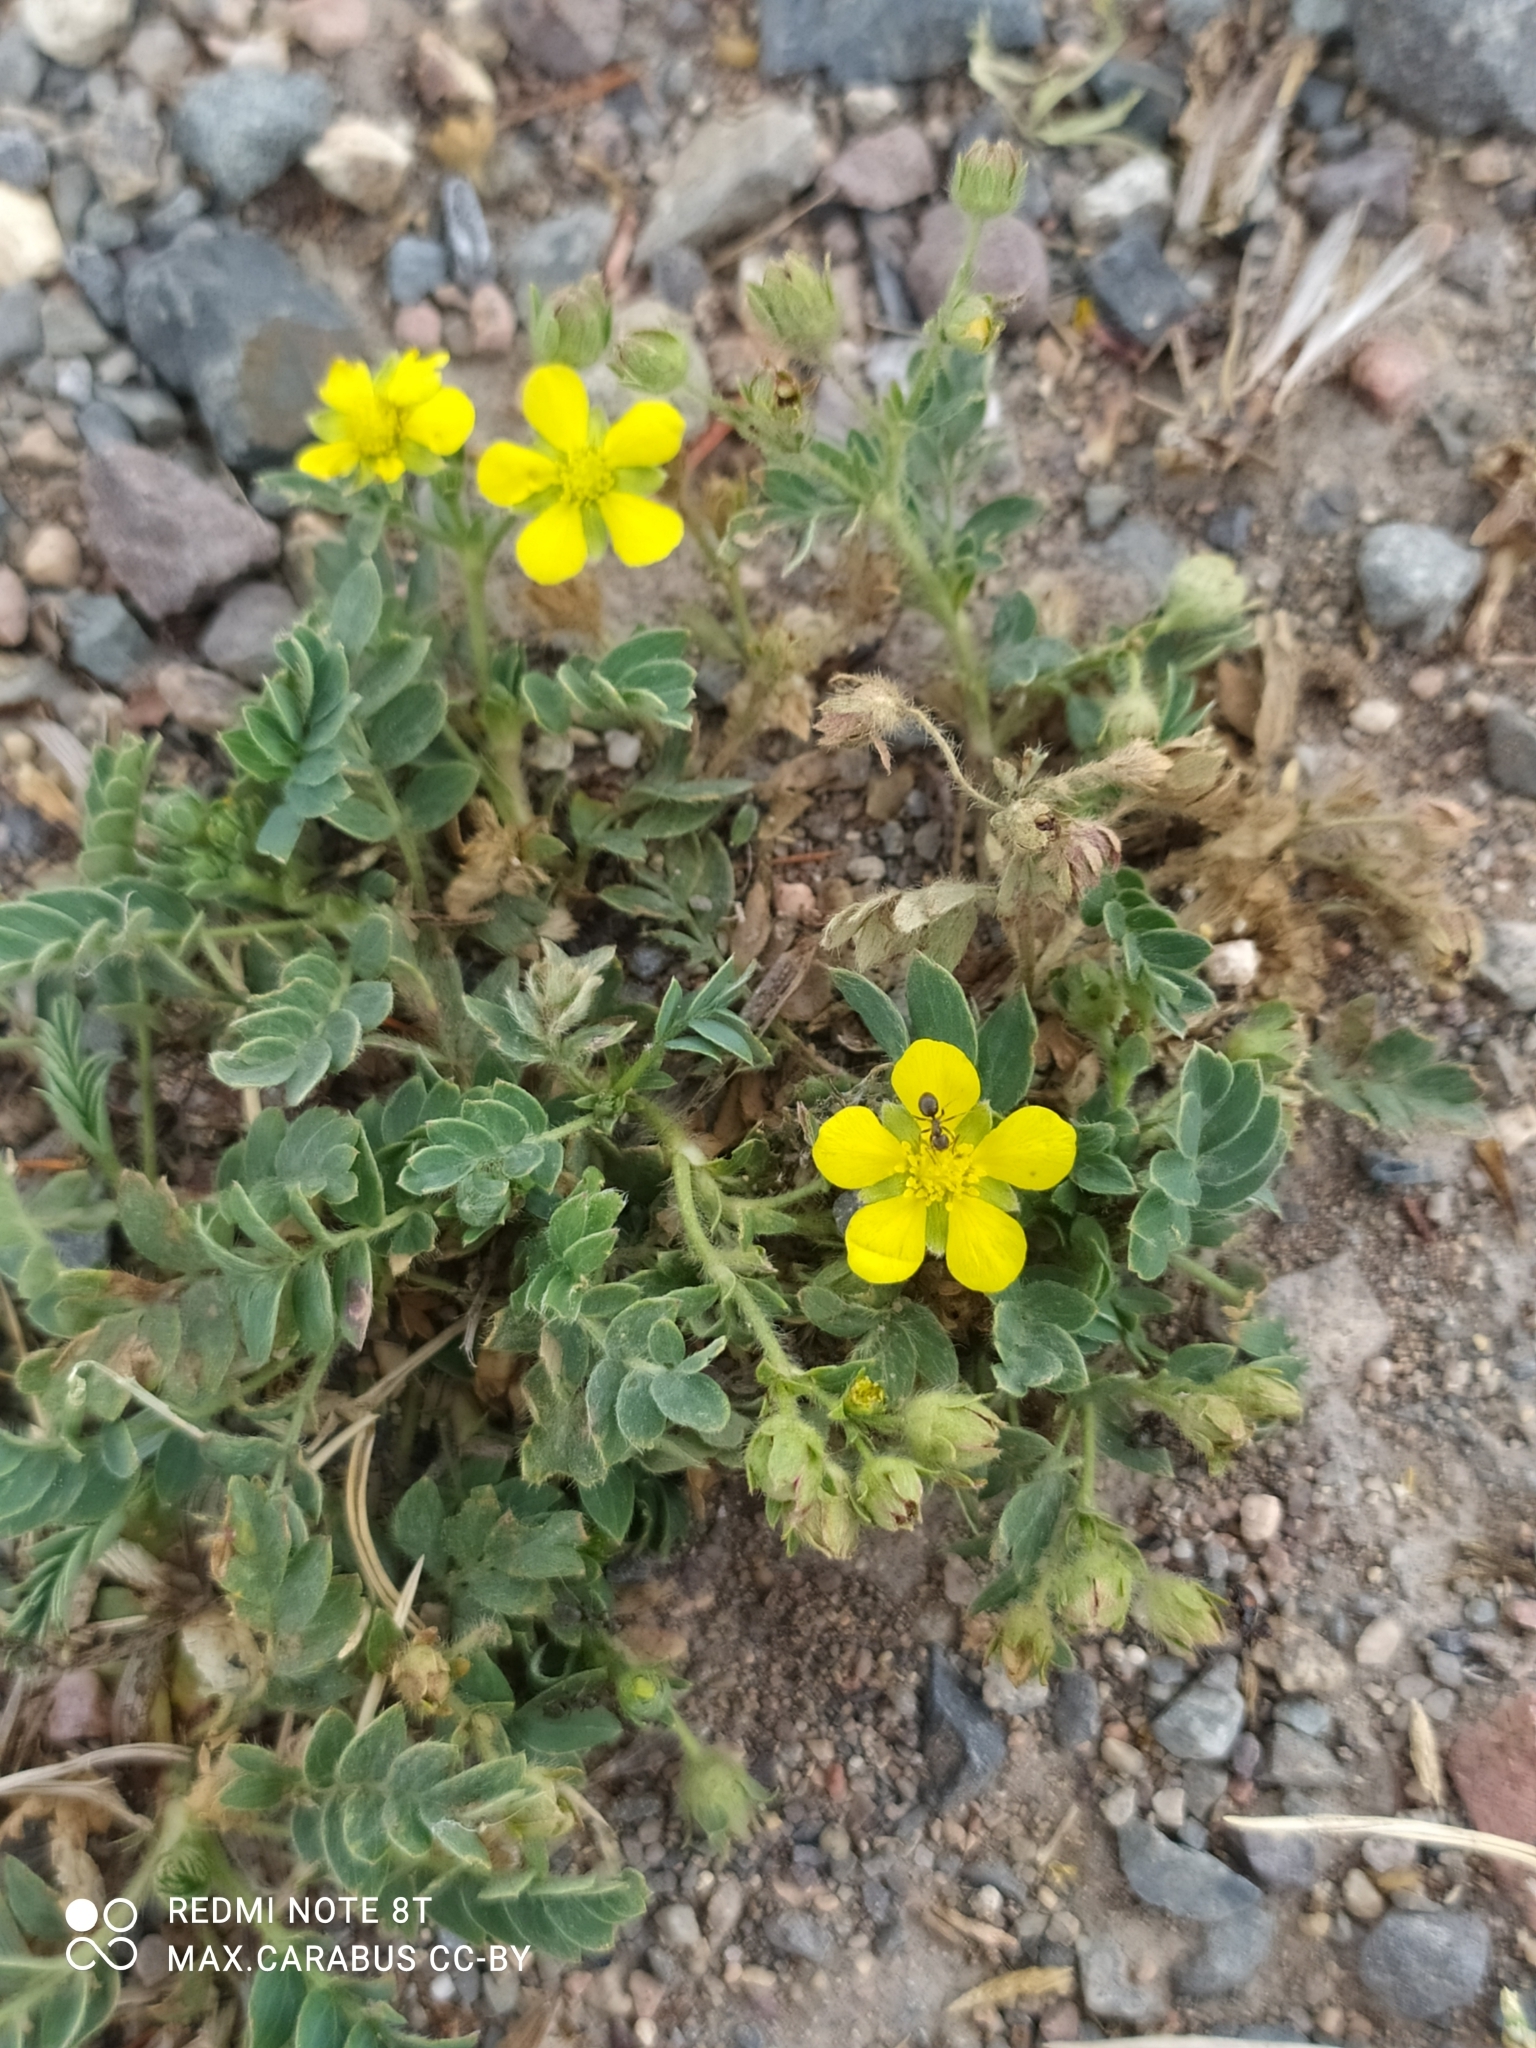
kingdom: Plantae
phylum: Tracheophyta
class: Magnoliopsida
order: Rosales
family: Rosaceae
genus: Sibbaldianthe
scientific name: Sibbaldianthe bifurca
